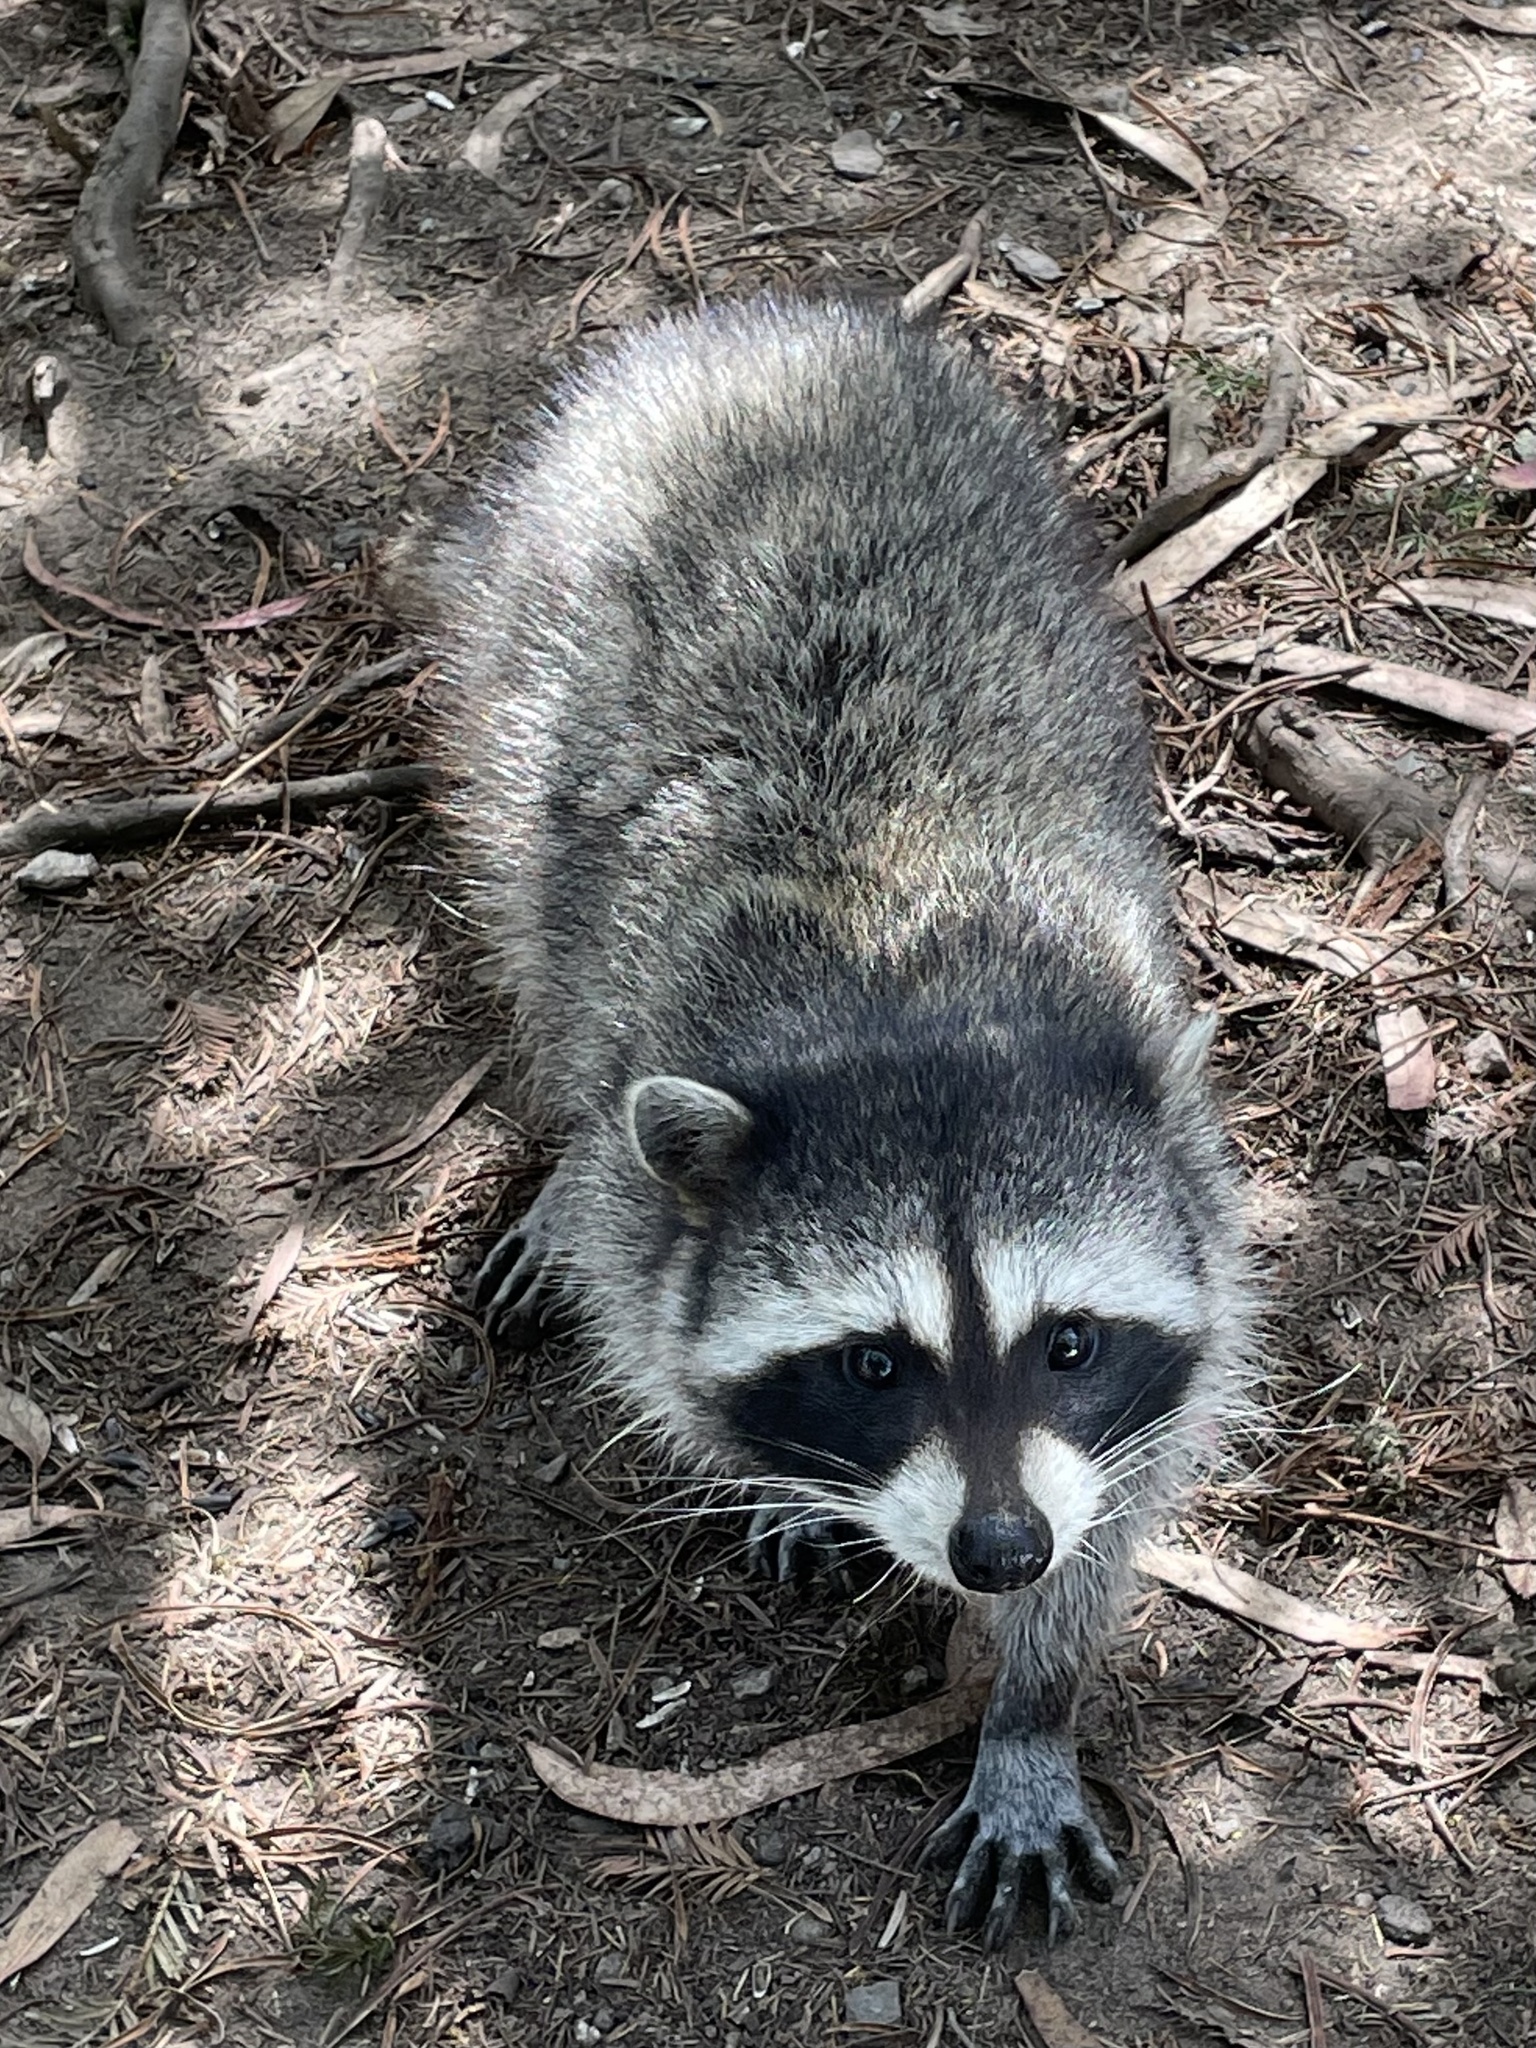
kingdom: Animalia
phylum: Chordata
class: Mammalia
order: Carnivora
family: Procyonidae
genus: Procyon
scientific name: Procyon lotor
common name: Raccoon
